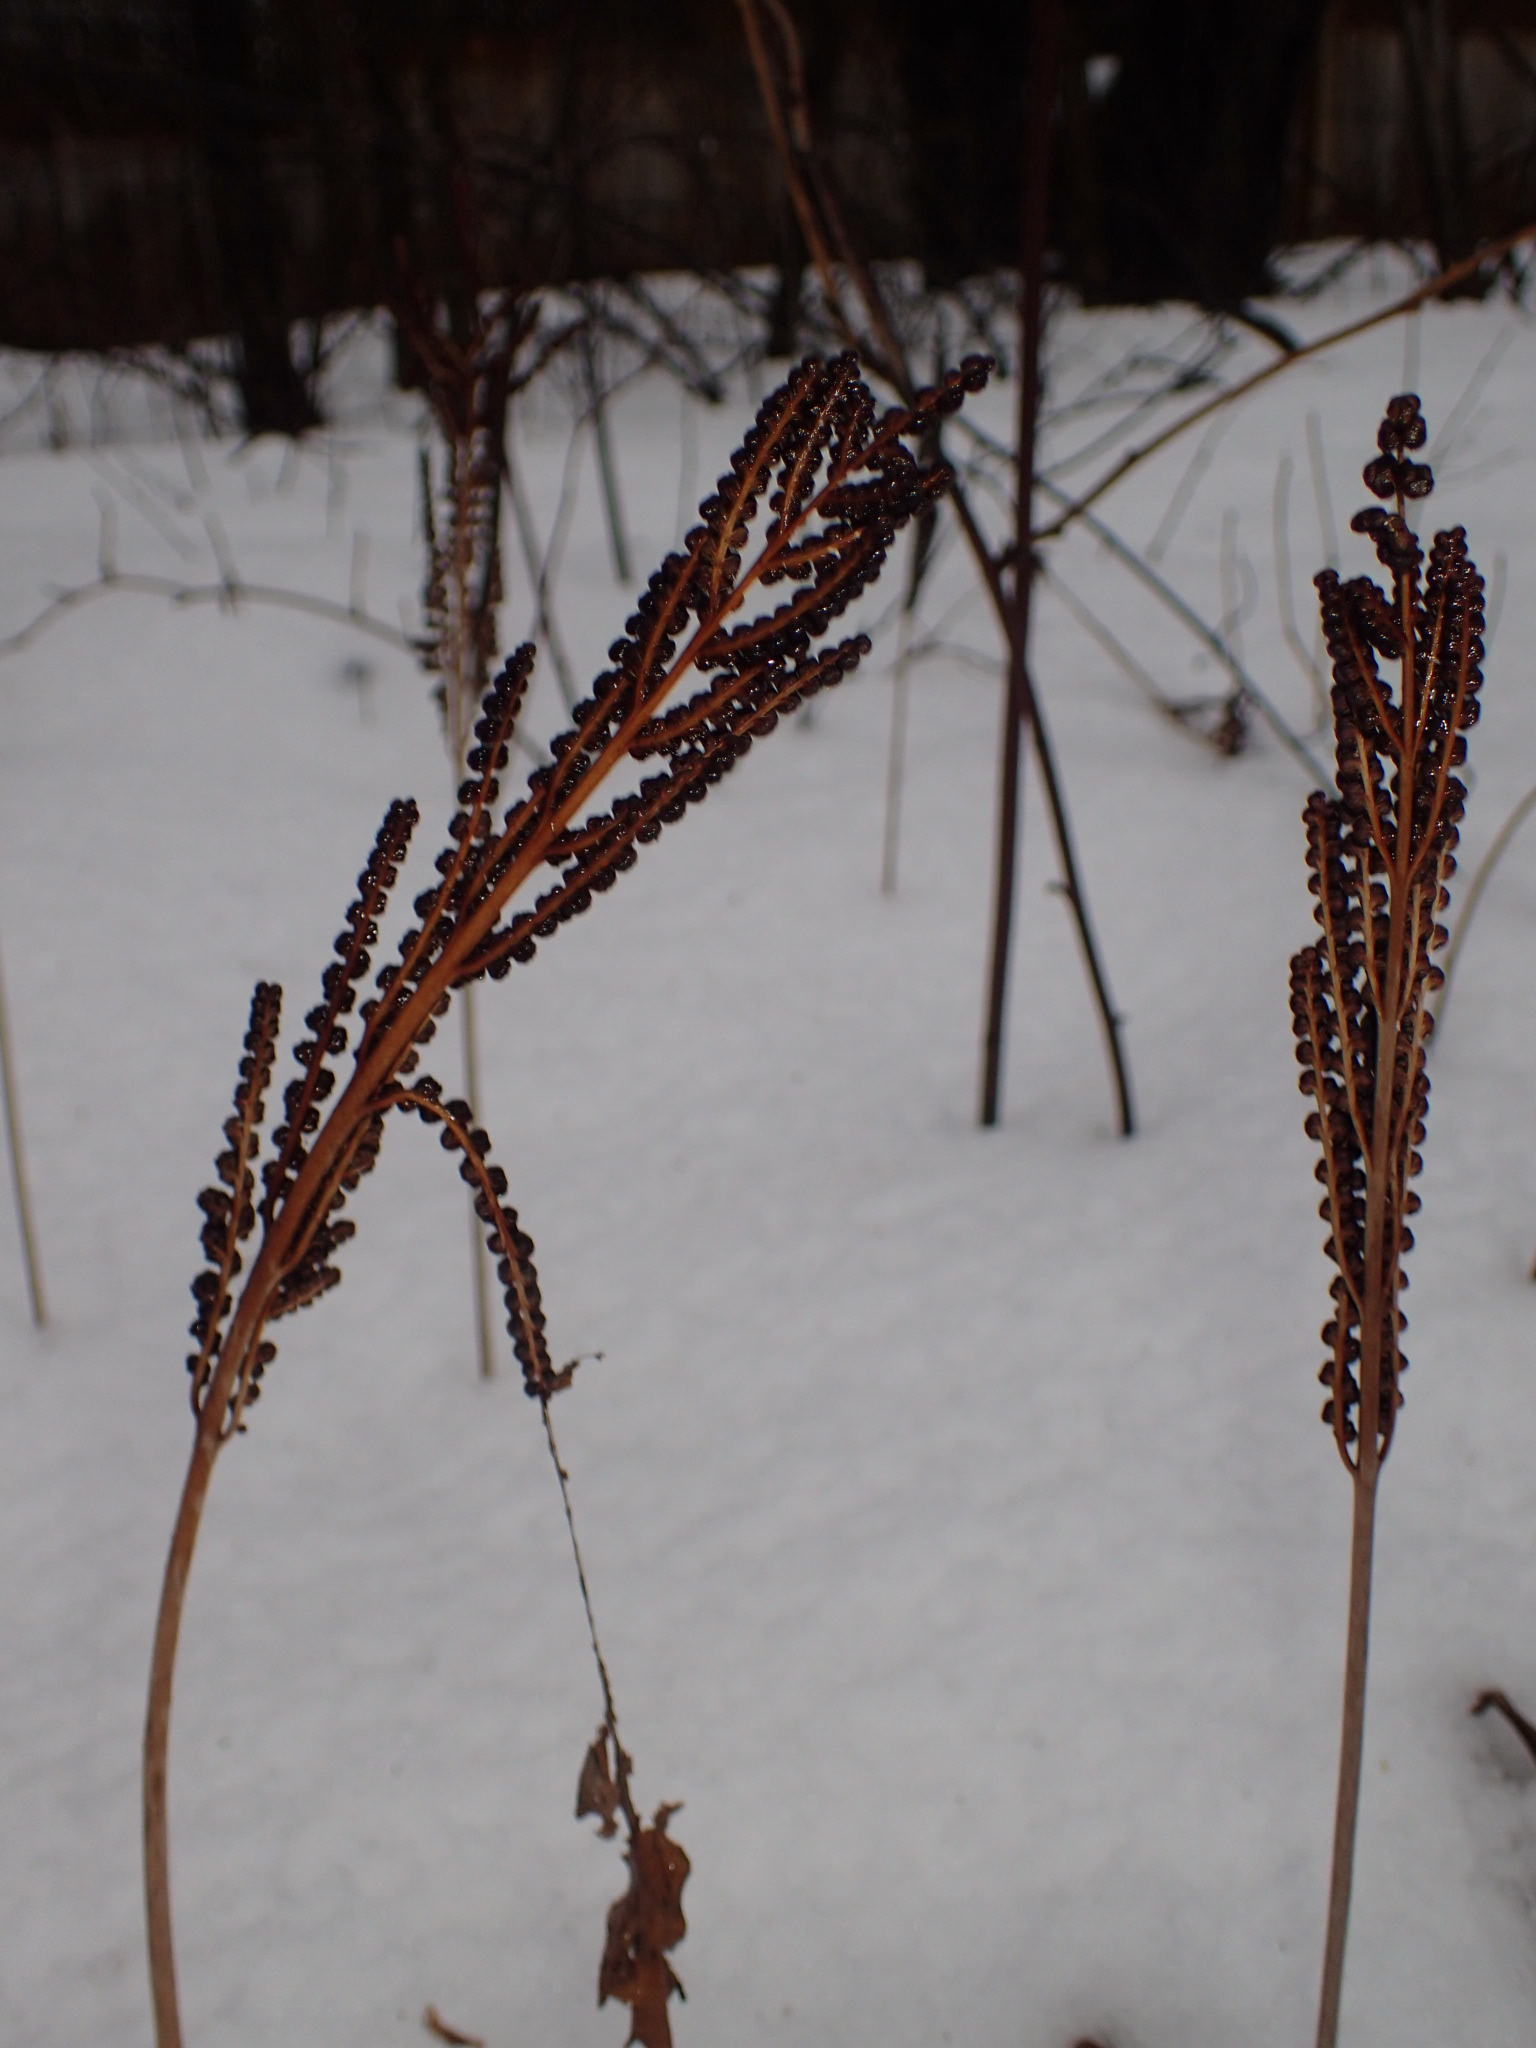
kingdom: Plantae
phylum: Tracheophyta
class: Polypodiopsida
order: Polypodiales
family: Onocleaceae
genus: Onoclea
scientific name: Onoclea sensibilis
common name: Sensitive fern
